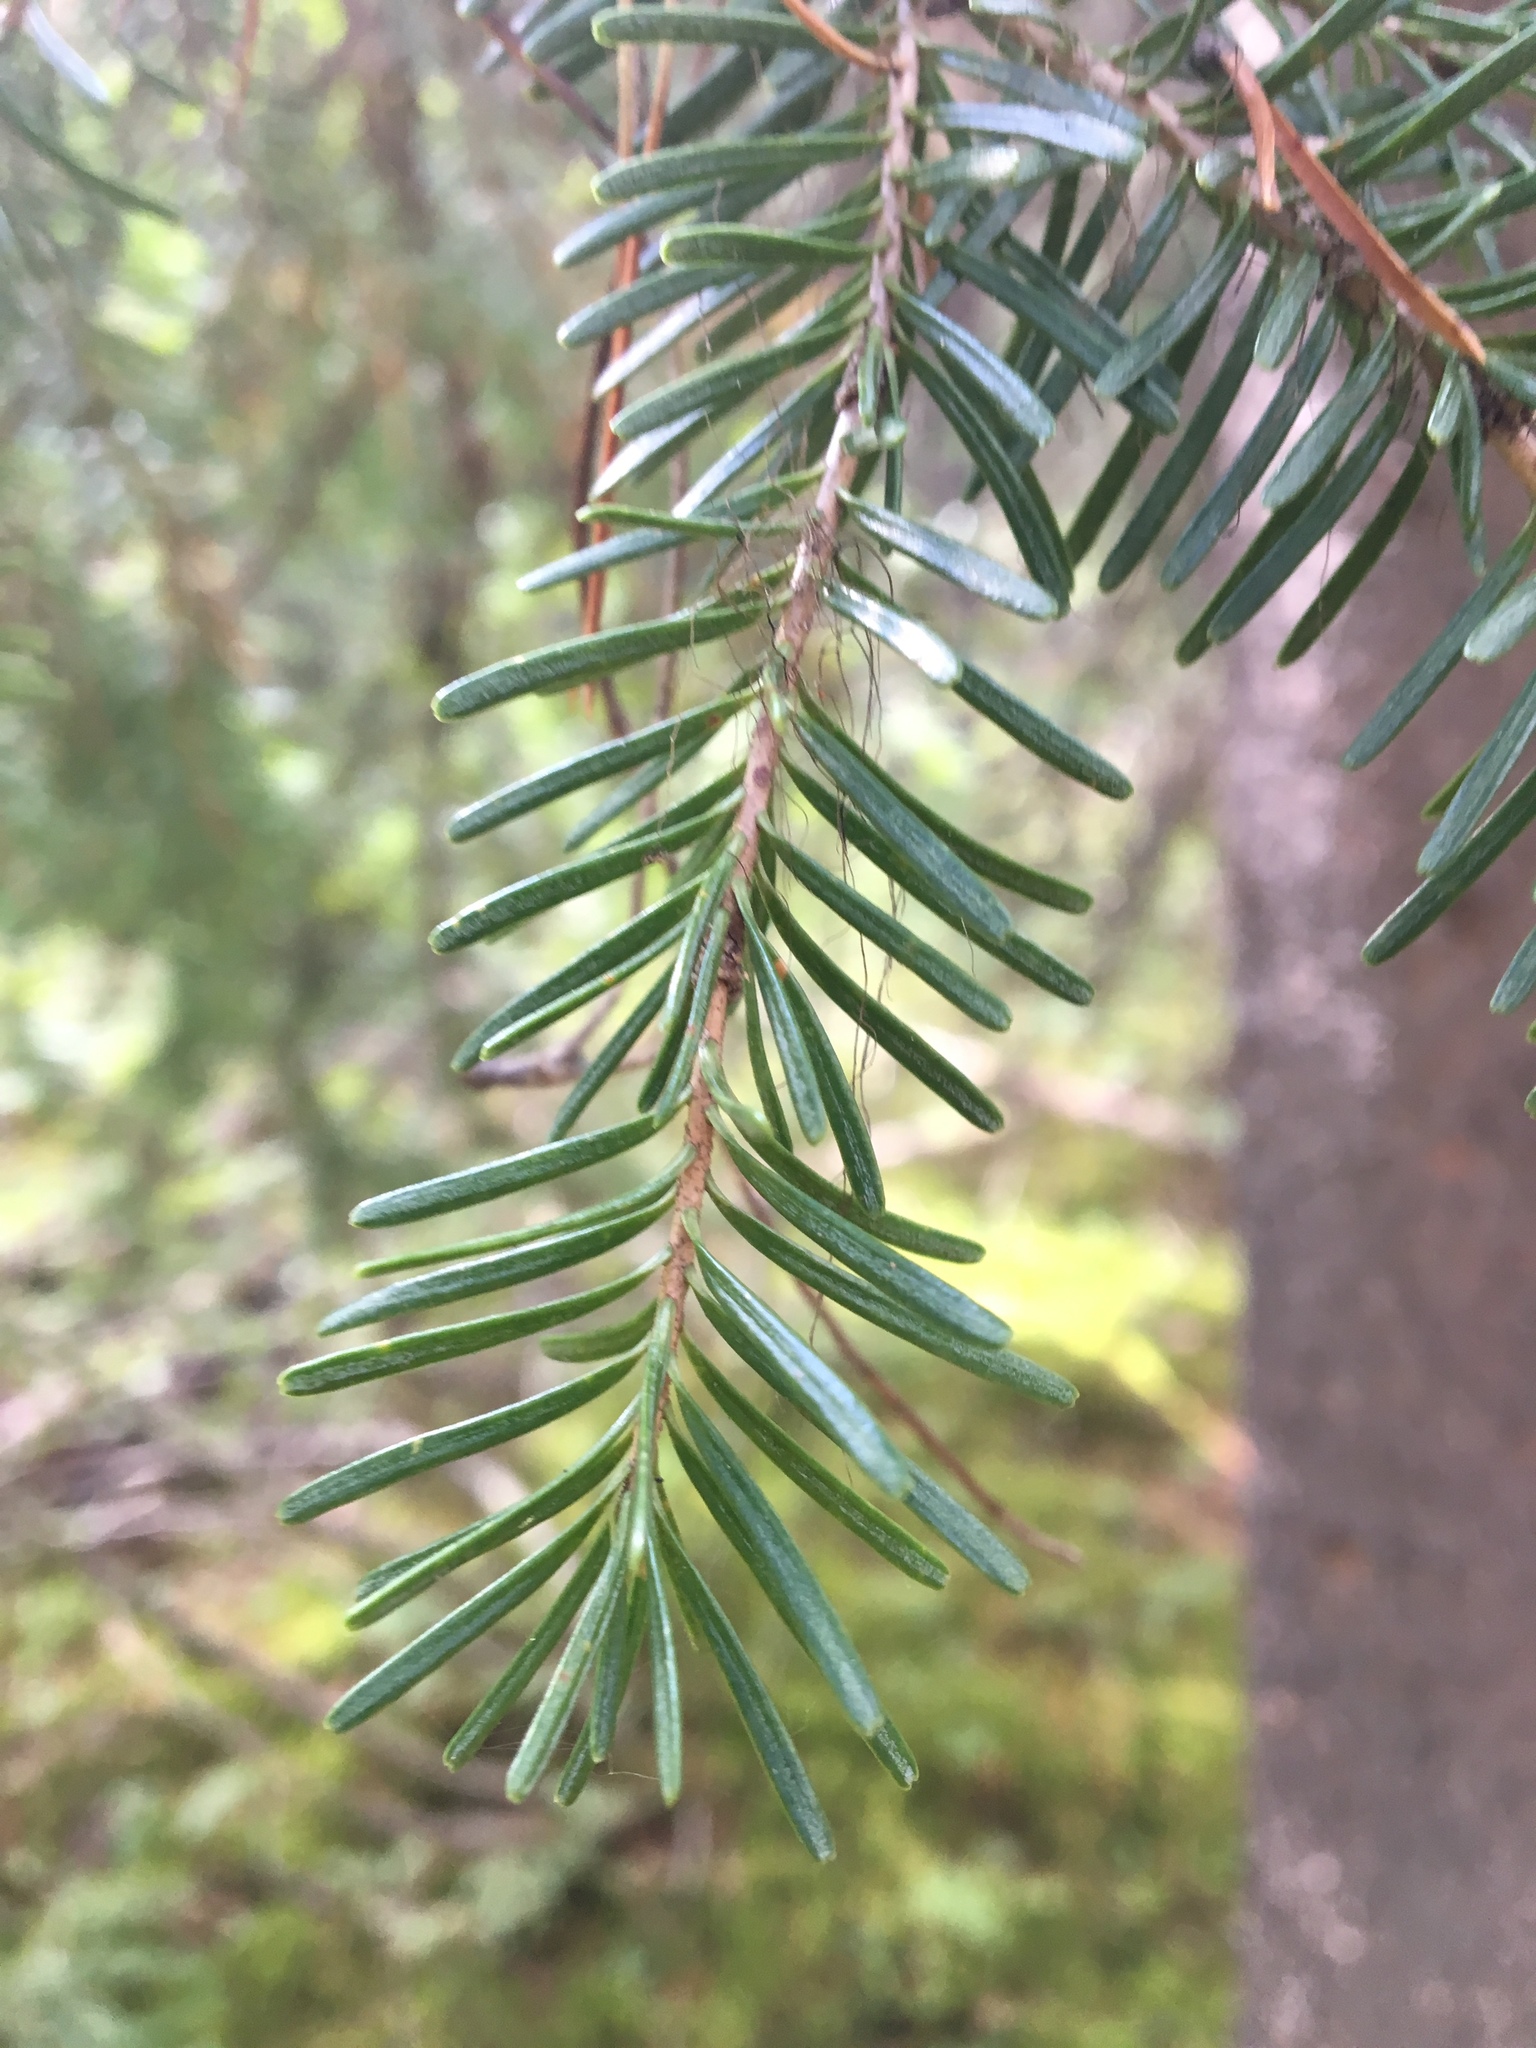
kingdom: Plantae
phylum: Tracheophyta
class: Pinopsida
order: Pinales
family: Pinaceae
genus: Abies
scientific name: Abies lasiocarpa
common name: Subalpine fir
